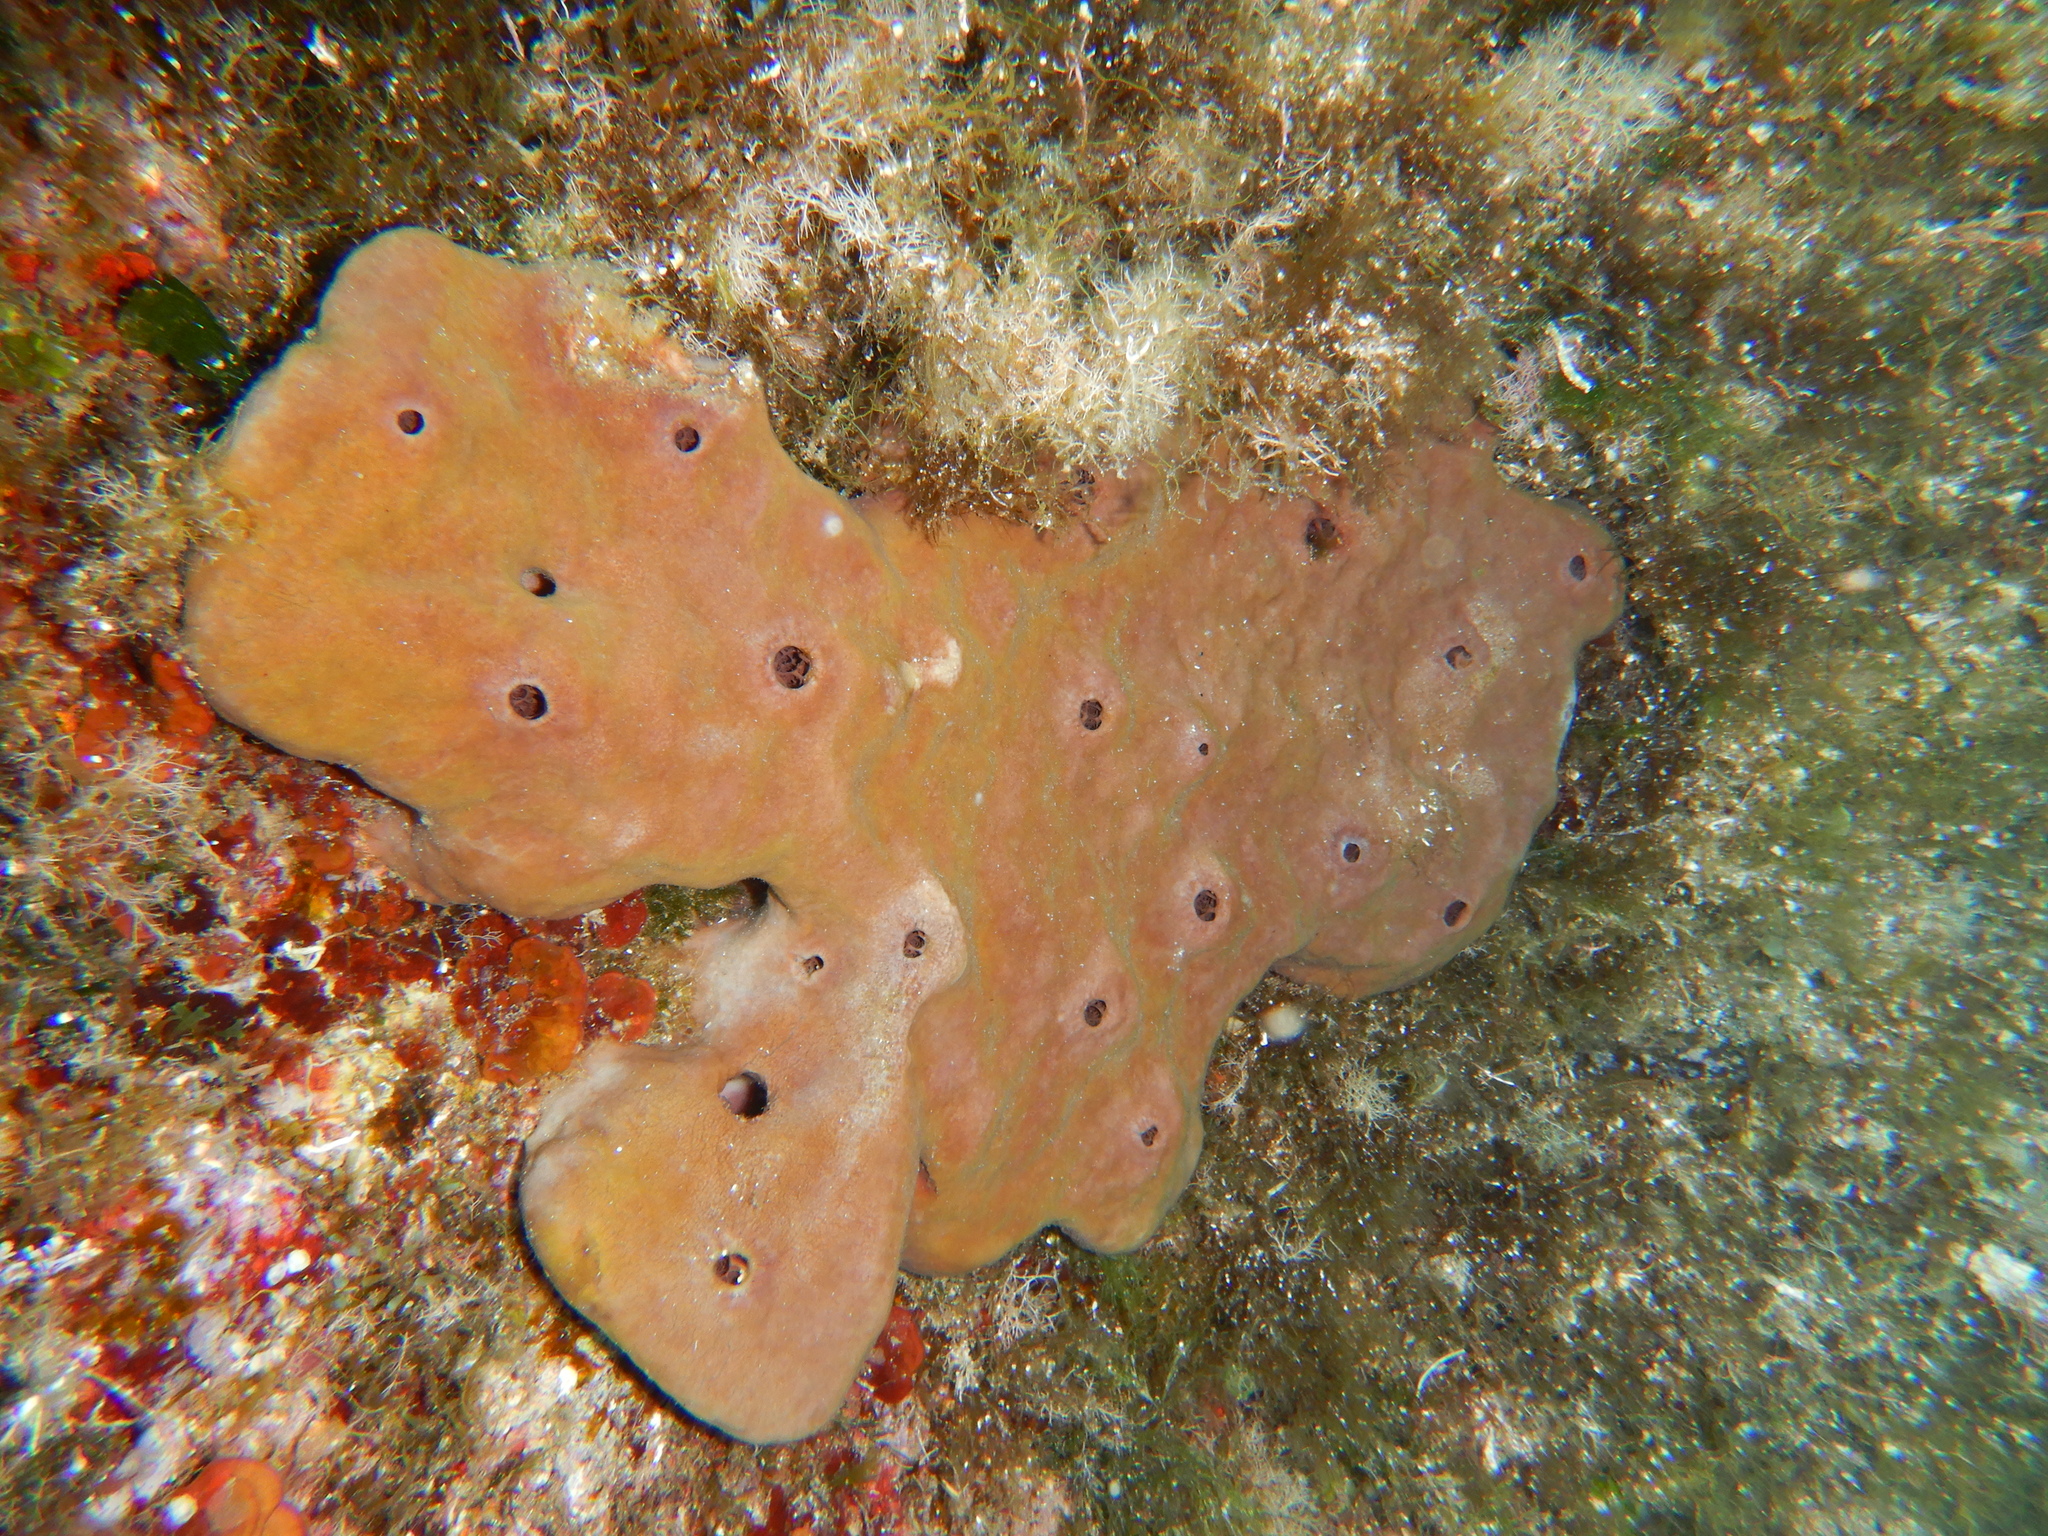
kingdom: Animalia
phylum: Porifera
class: Demospongiae
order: Haplosclerida
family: Petrosiidae
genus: Petrosia
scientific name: Petrosia ficiformis
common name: Stony sponge
